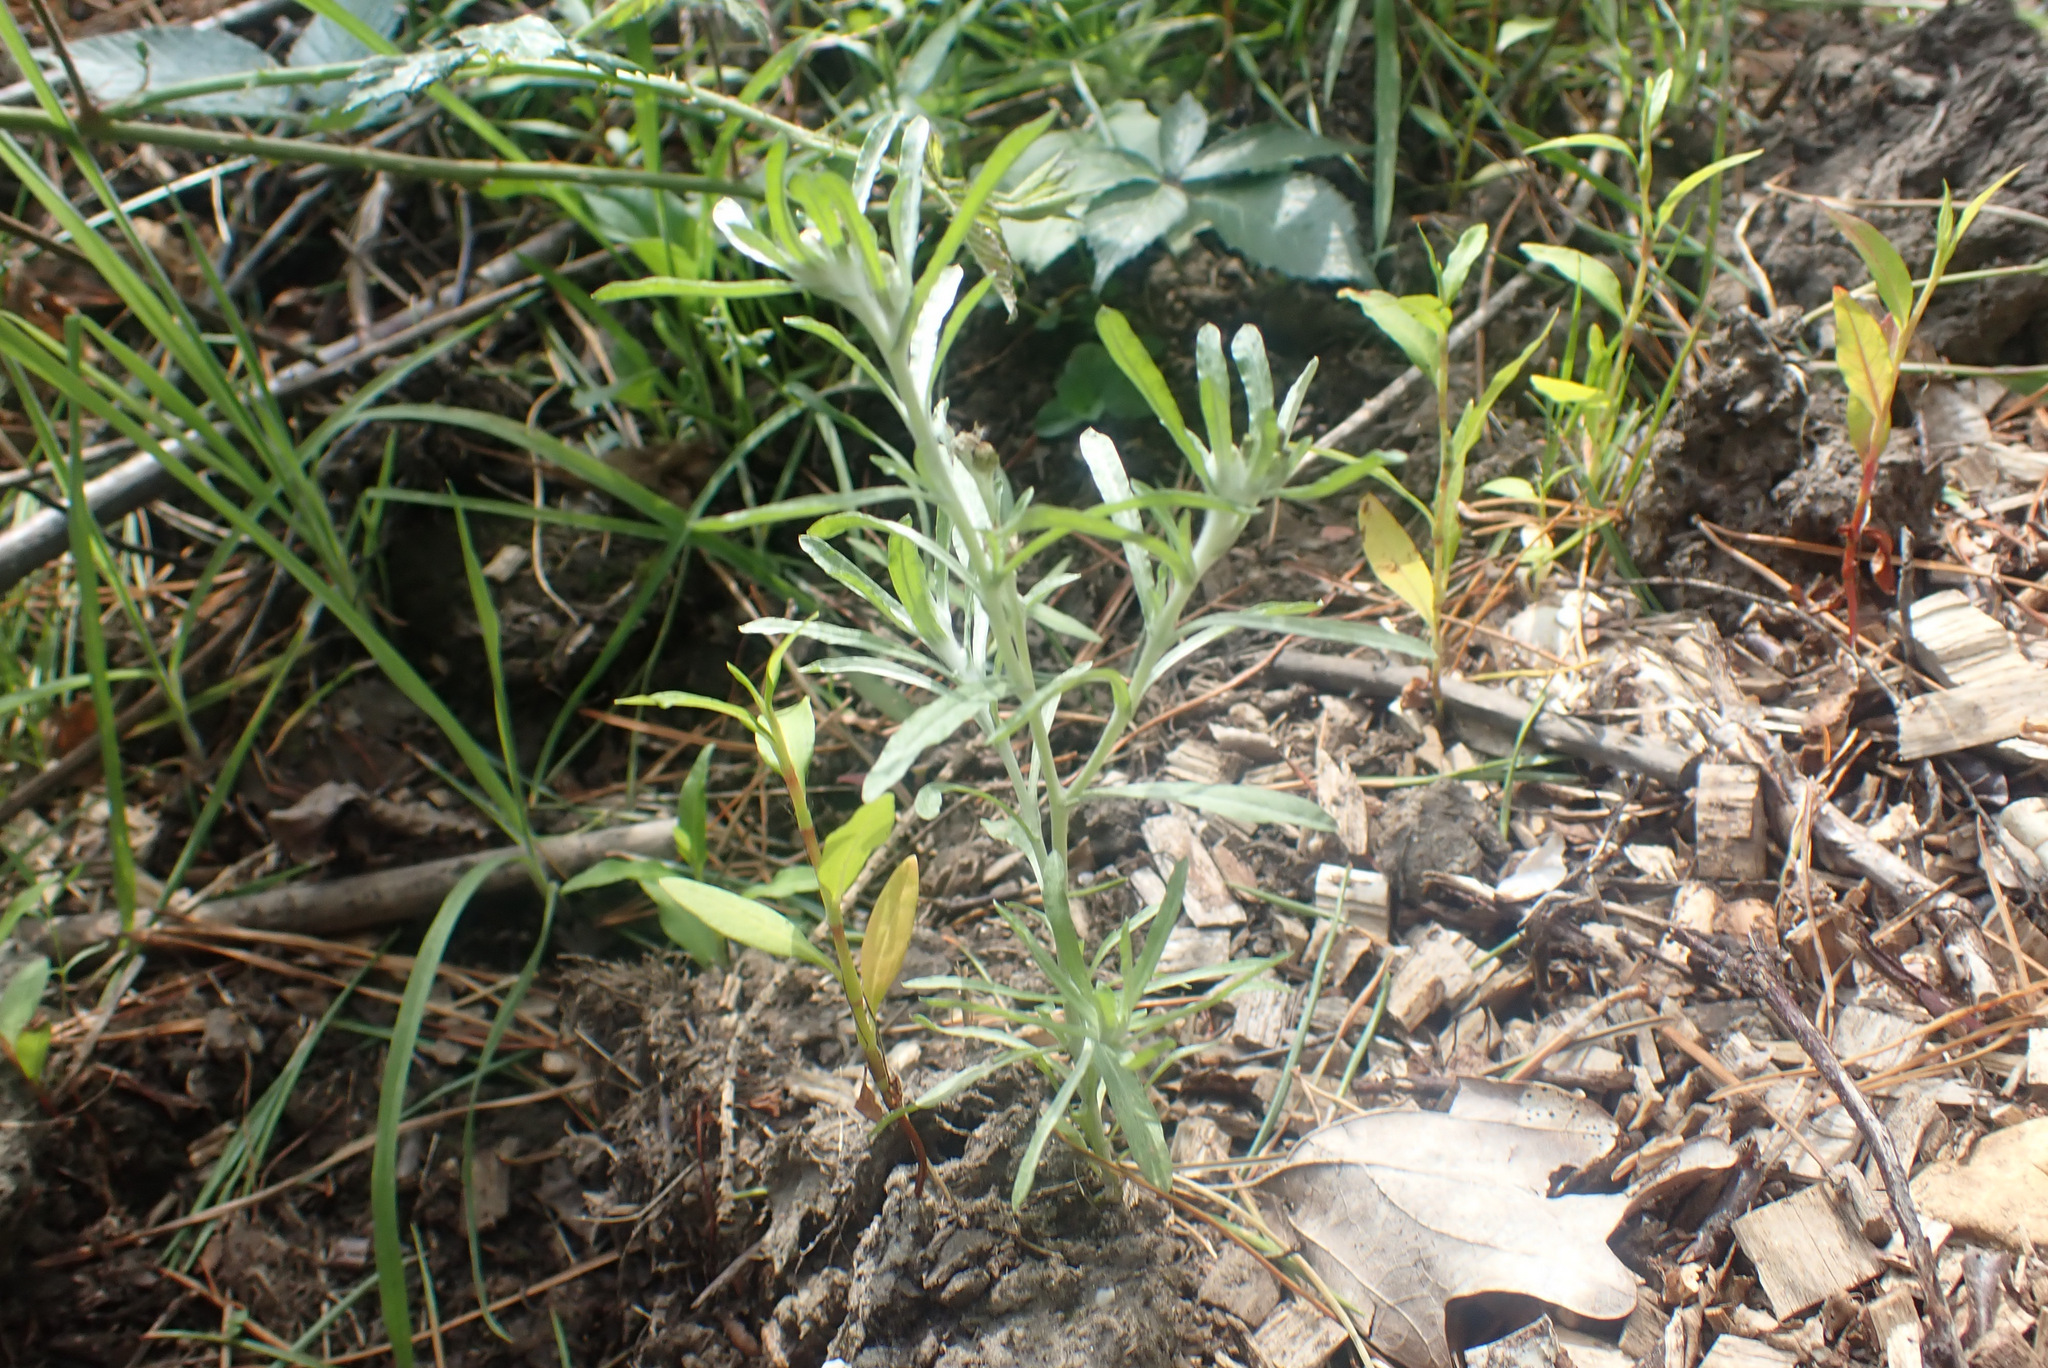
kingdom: Plantae
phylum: Tracheophyta
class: Magnoliopsida
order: Asterales
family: Asteraceae
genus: Gnaphalium
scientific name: Gnaphalium uliginosum
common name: Marsh cudweed
